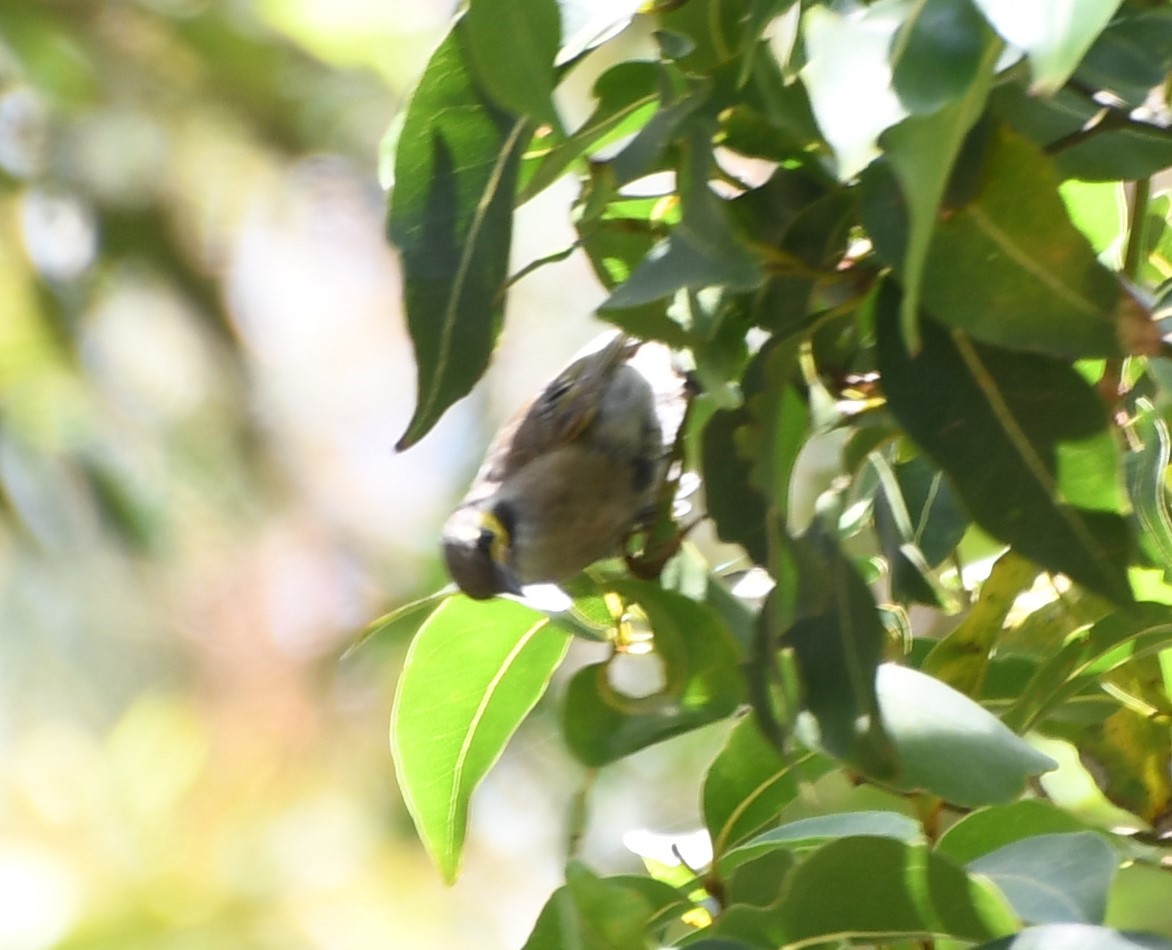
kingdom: Animalia
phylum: Chordata
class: Aves
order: Passeriformes
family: Meliphagidae
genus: Caligavis
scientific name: Caligavis chrysops
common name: Yellow-faced honeyeater
